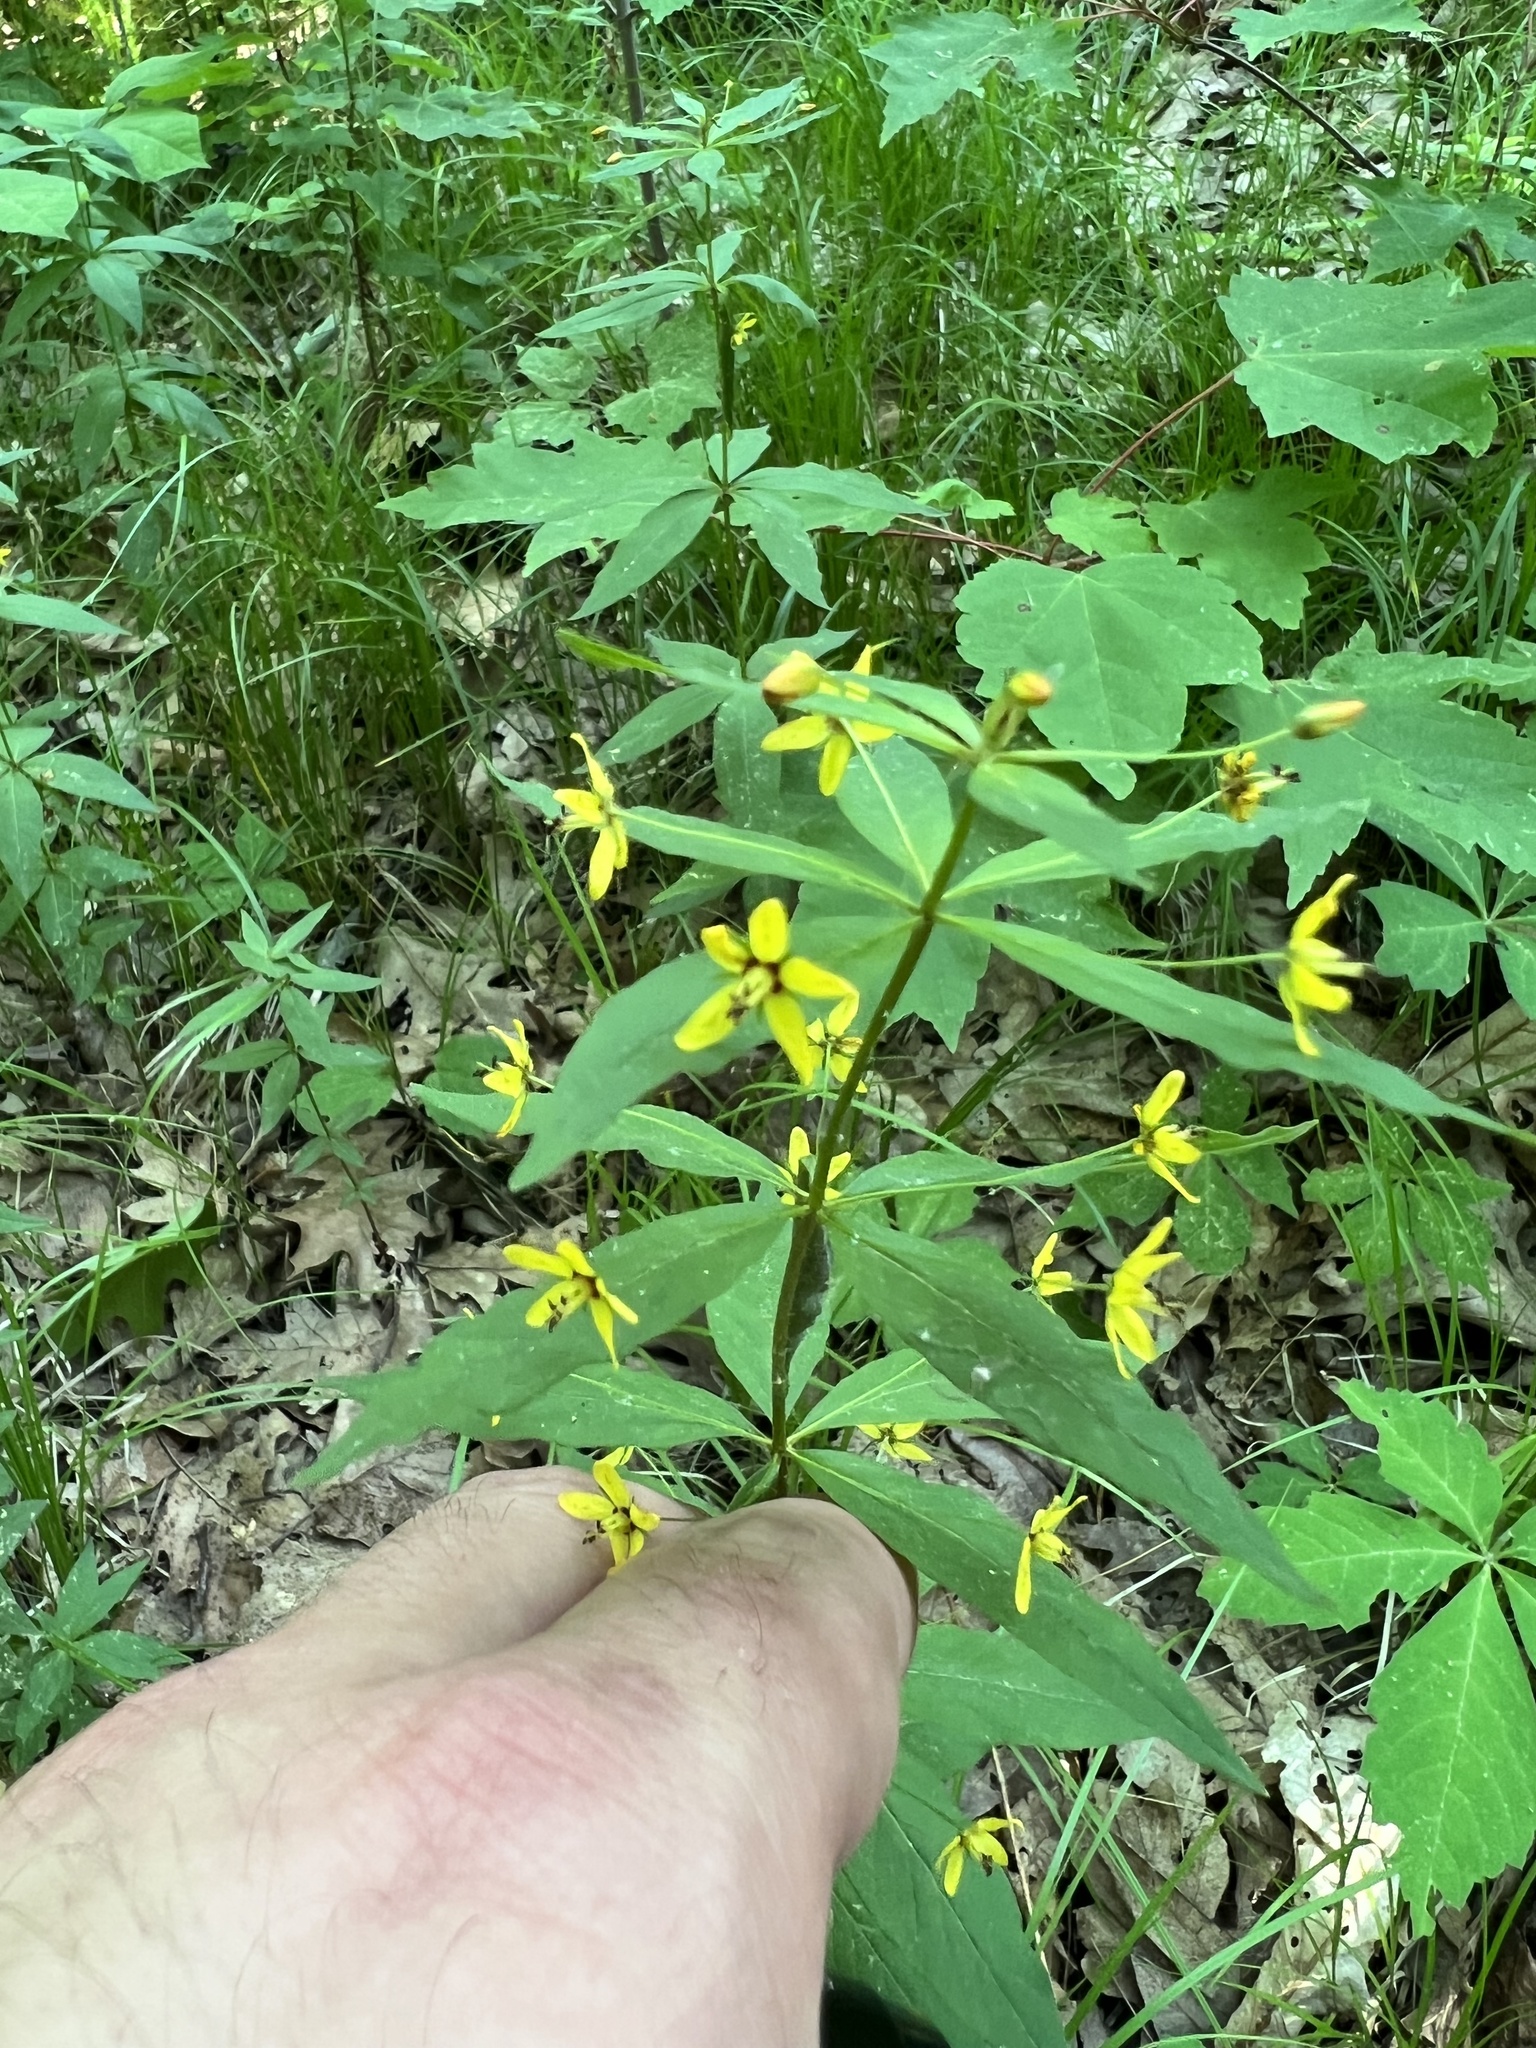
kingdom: Plantae
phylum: Tracheophyta
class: Magnoliopsida
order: Ericales
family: Primulaceae
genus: Lysimachia
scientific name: Lysimachia quadrifolia
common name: Whorled loosestrife
